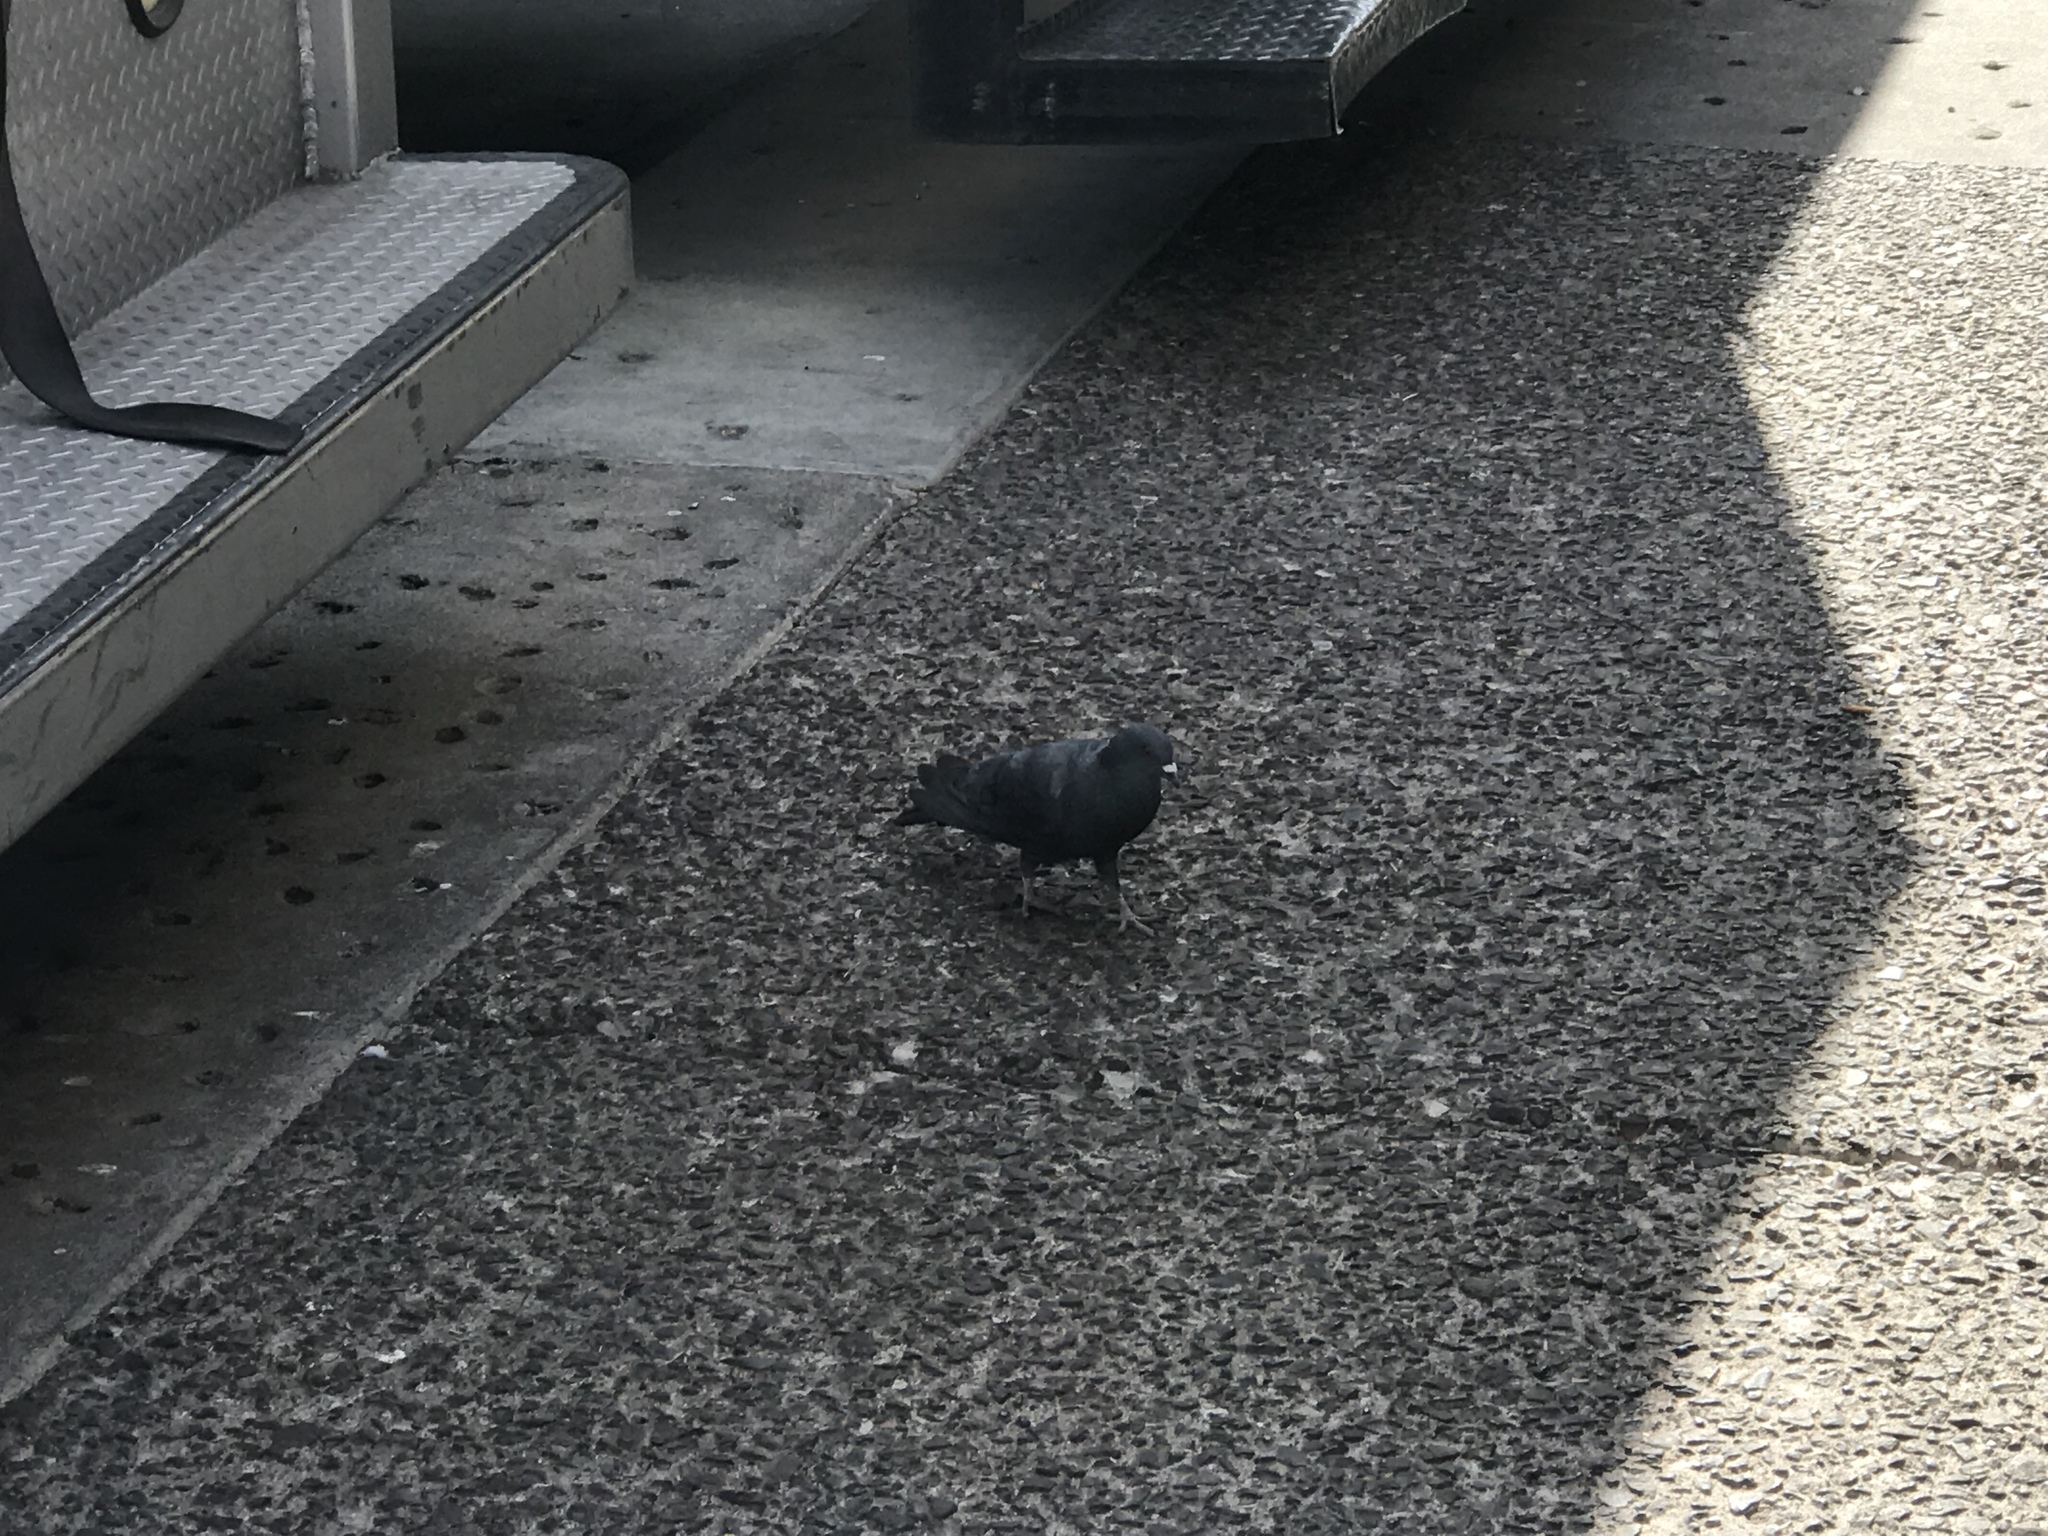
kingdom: Animalia
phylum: Chordata
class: Aves
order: Columbiformes
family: Columbidae
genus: Columba
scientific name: Columba livia
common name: Rock pigeon
